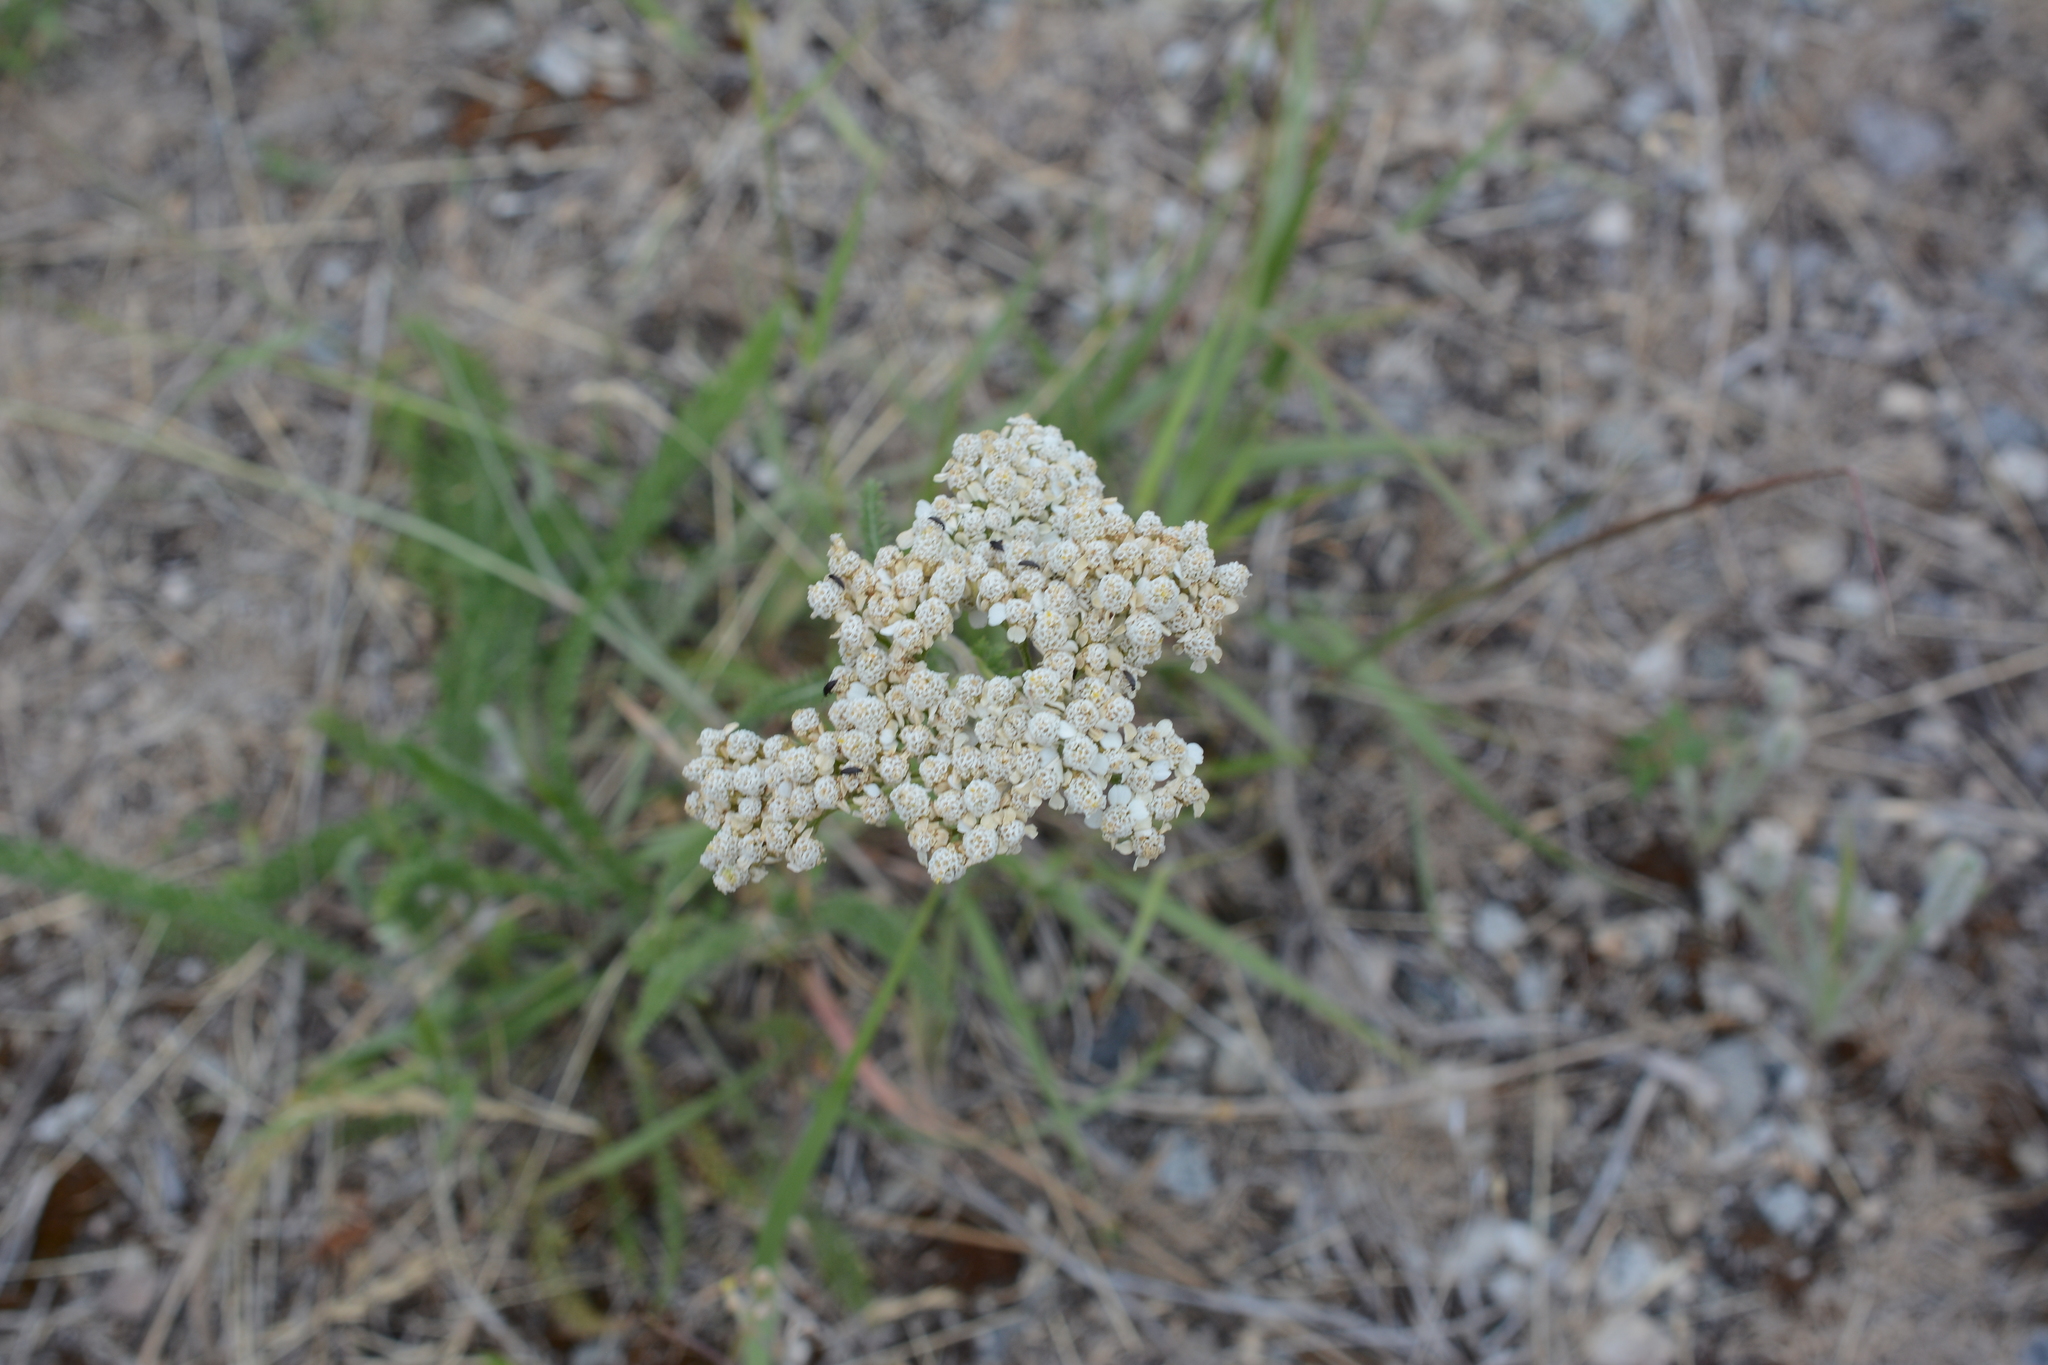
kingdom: Plantae
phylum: Tracheophyta
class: Magnoliopsida
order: Asterales
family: Asteraceae
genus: Achillea
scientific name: Achillea millefolium
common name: Yarrow
